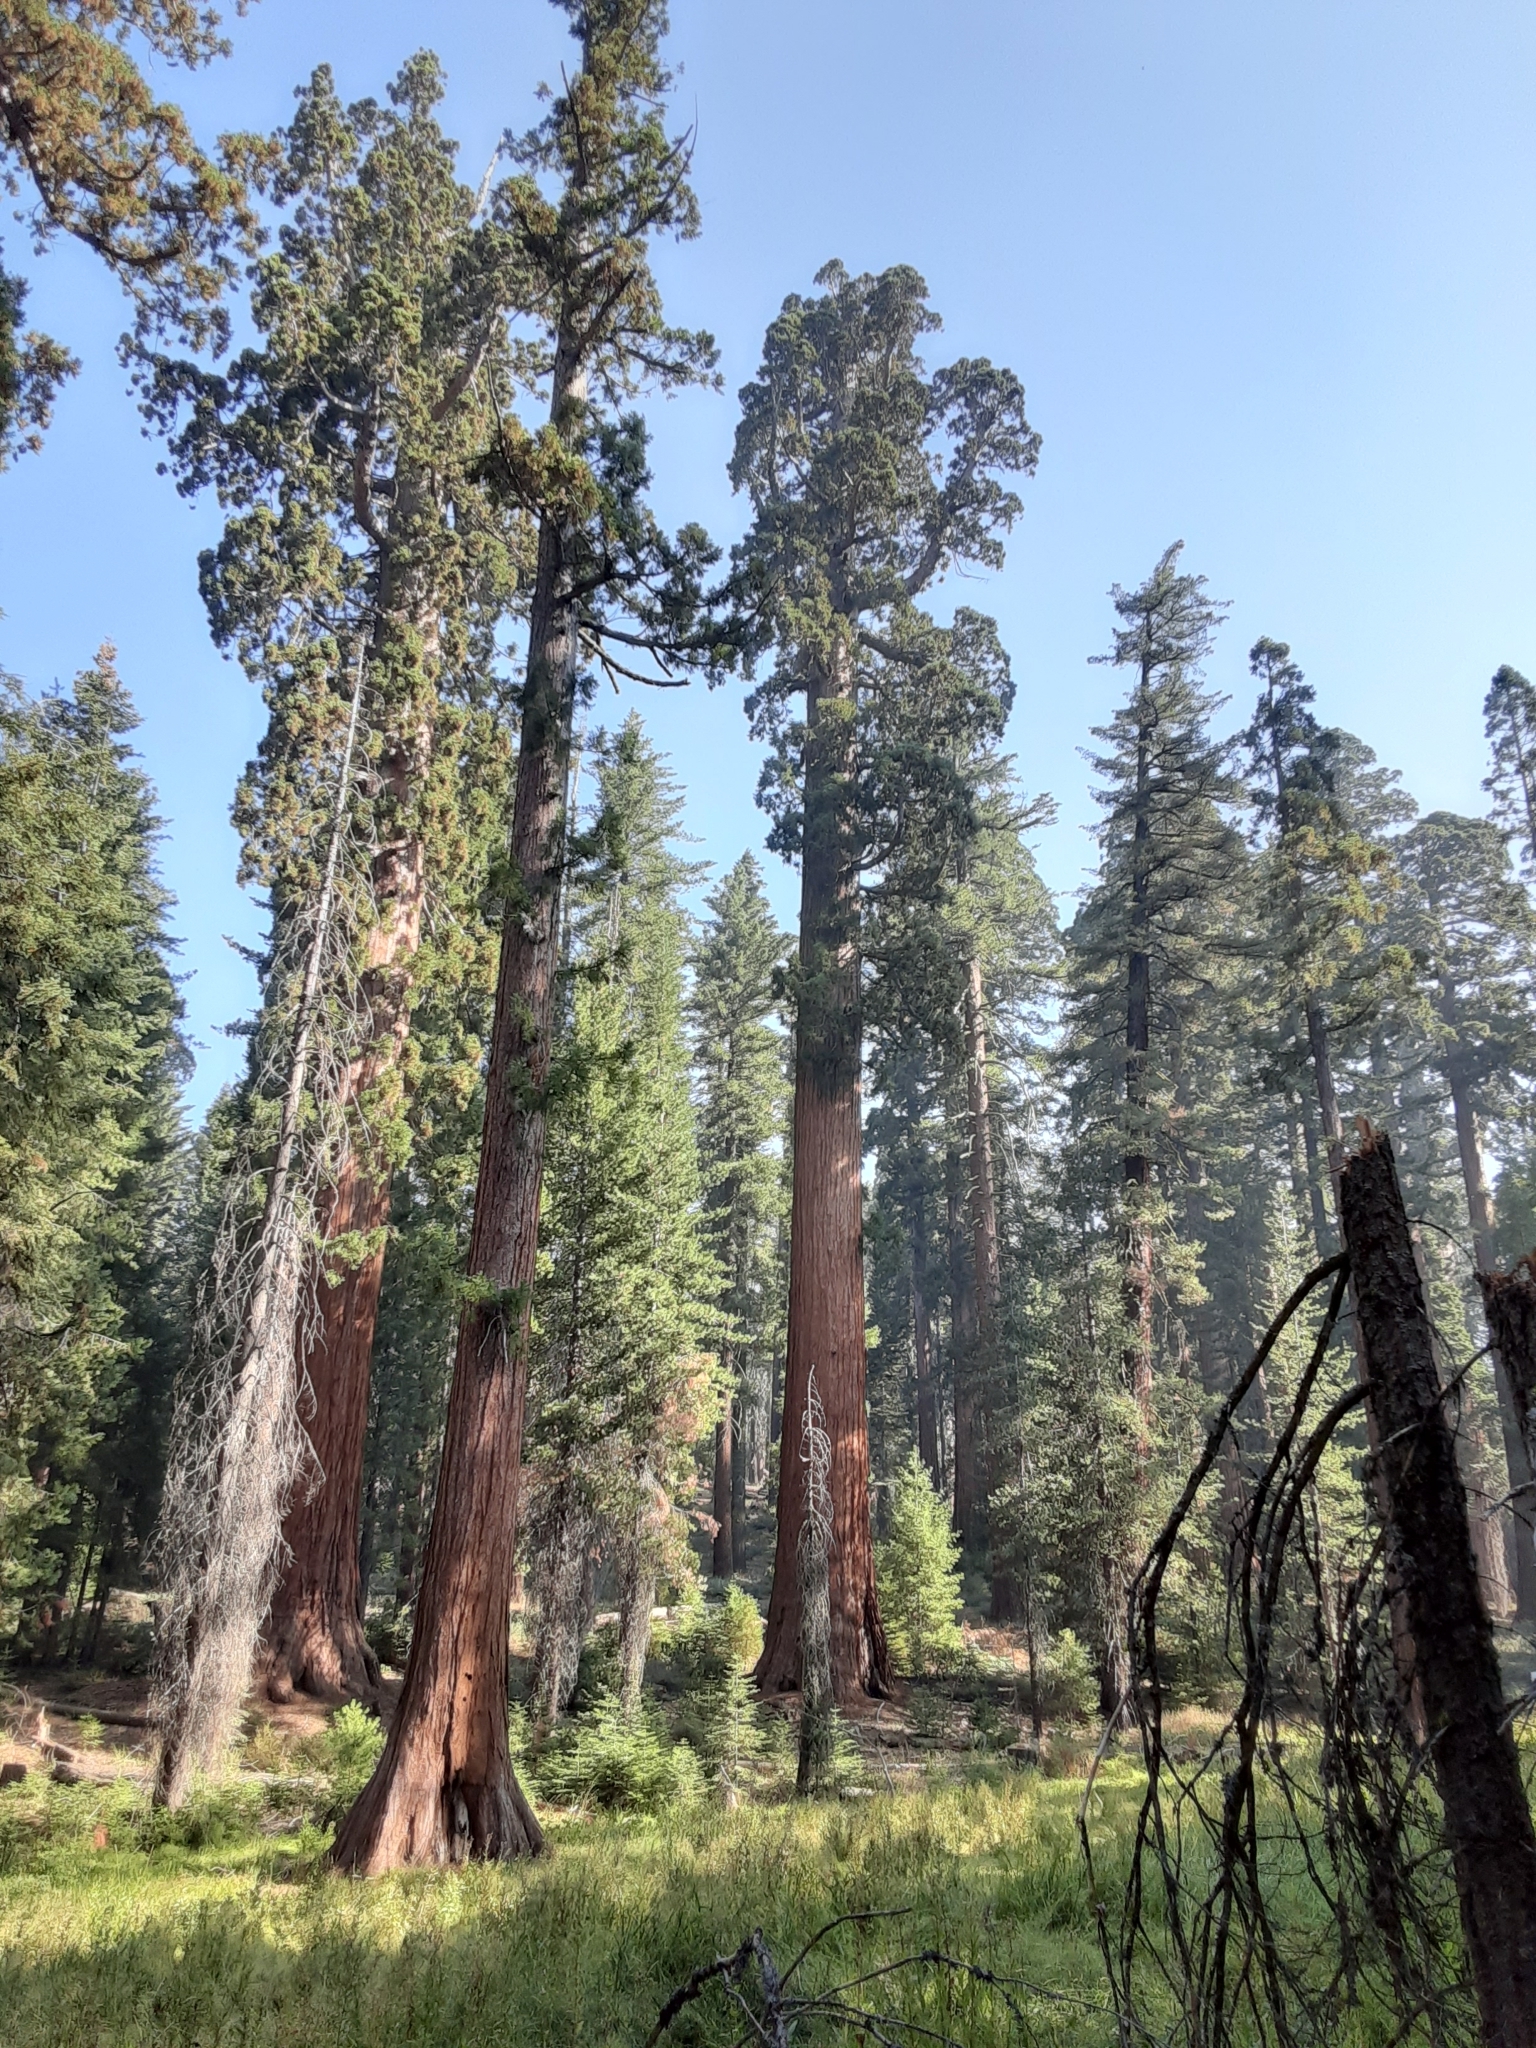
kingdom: Plantae
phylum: Tracheophyta
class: Pinopsida
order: Pinales
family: Cupressaceae
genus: Sequoiadendron
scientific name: Sequoiadendron giganteum
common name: Wellingtonia
